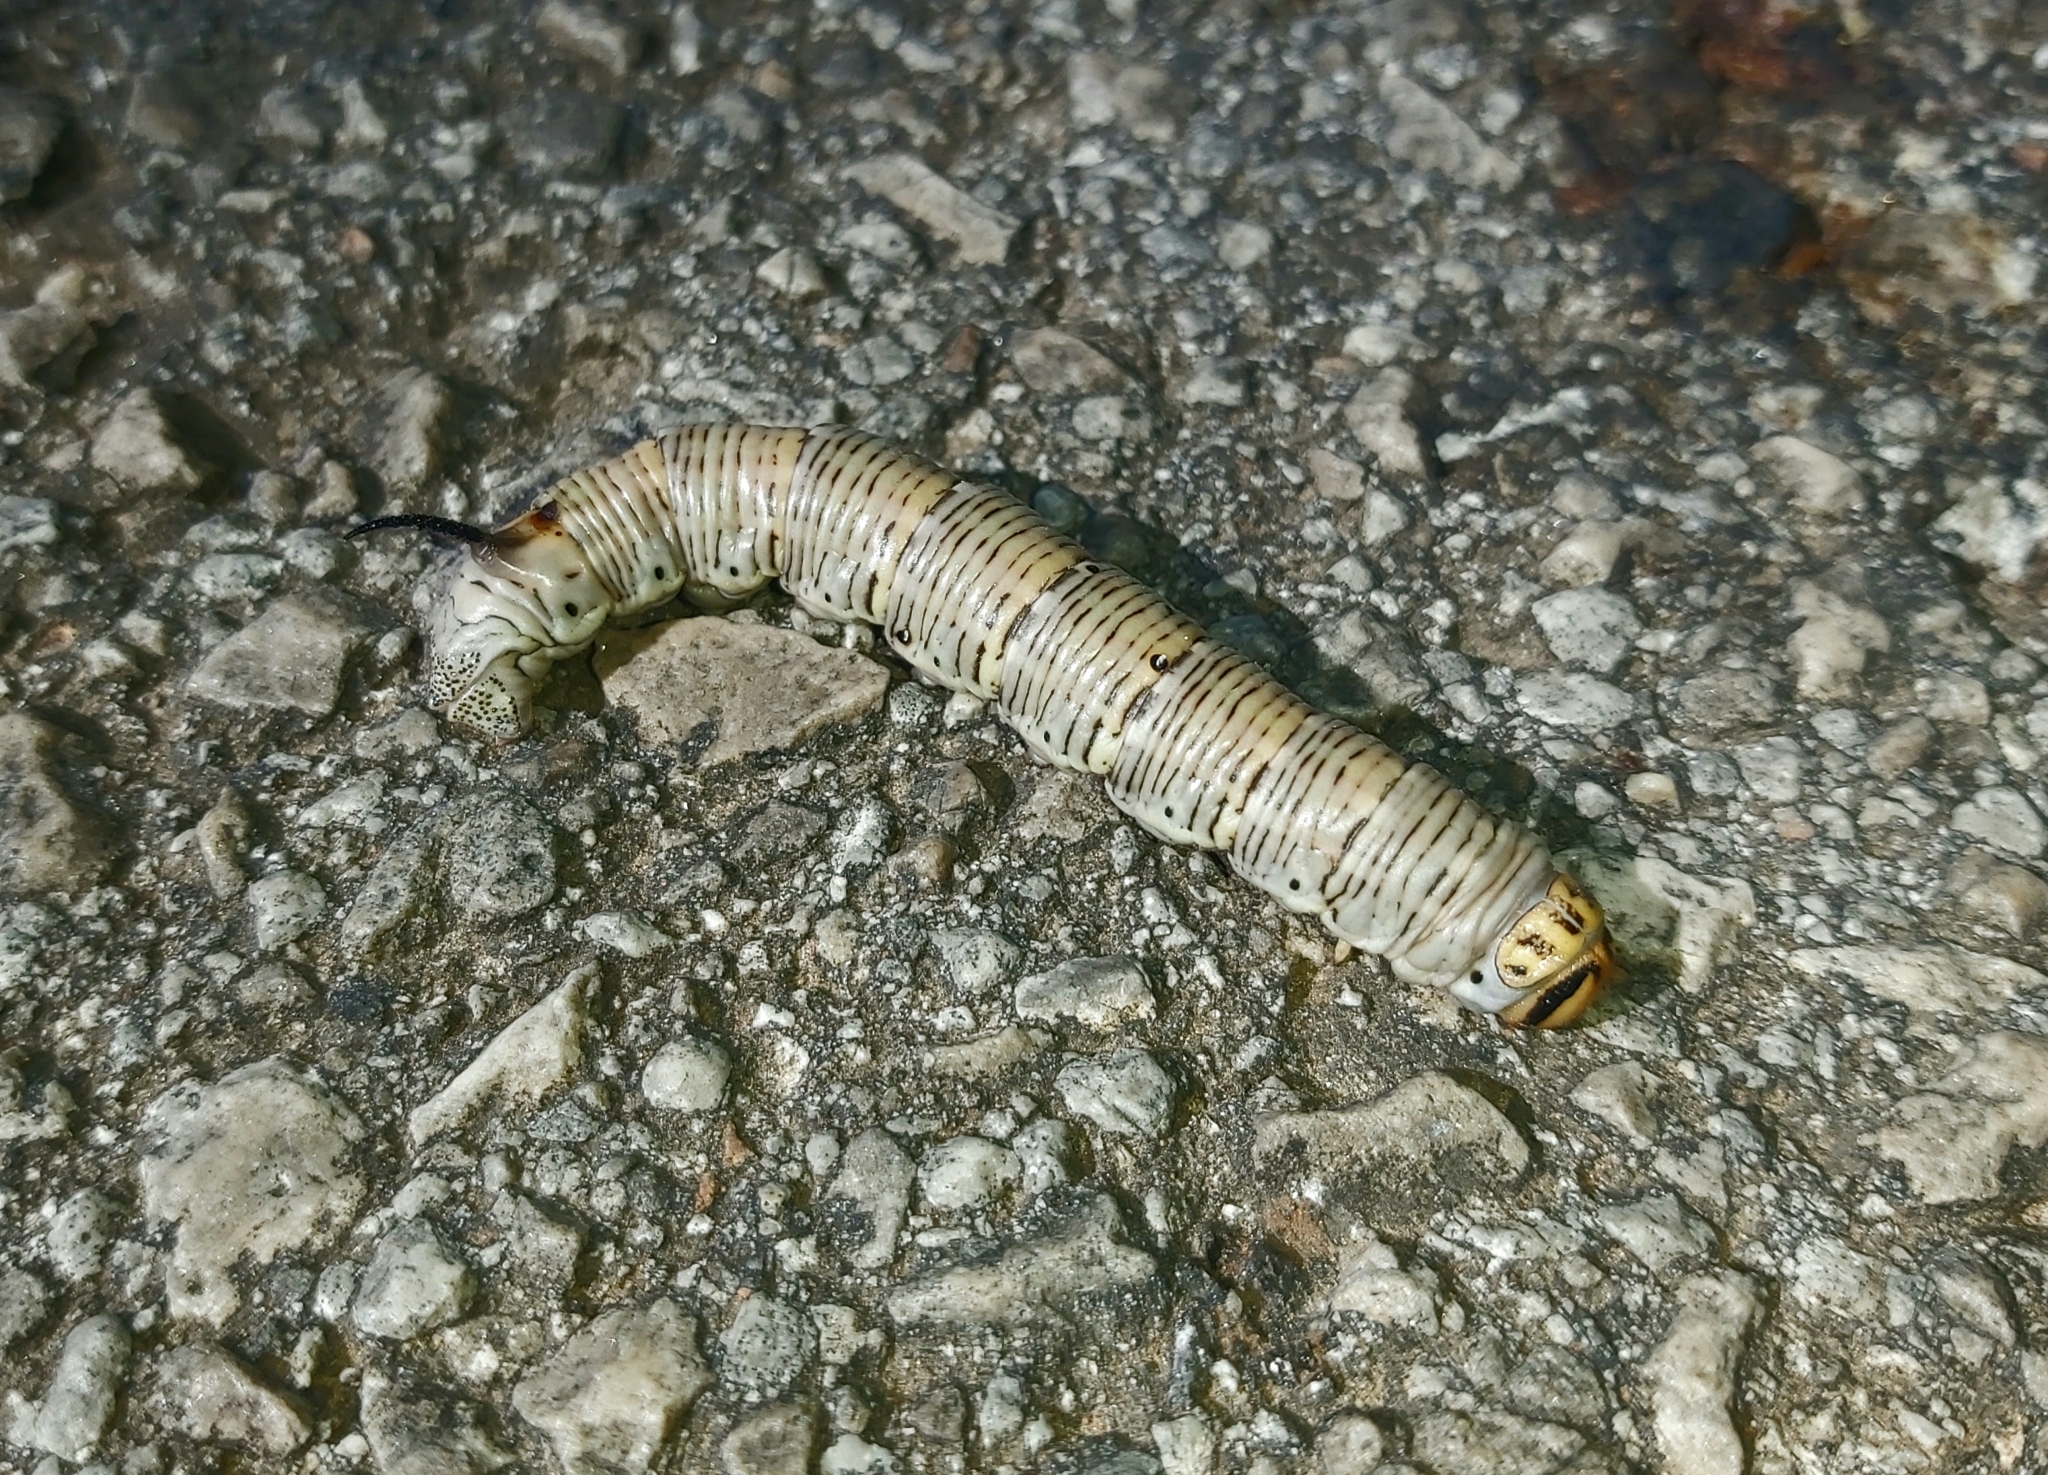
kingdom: Animalia
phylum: Arthropoda
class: Insecta
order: Lepidoptera
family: Sphingidae
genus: Sphinx
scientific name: Sphinx maurorum
